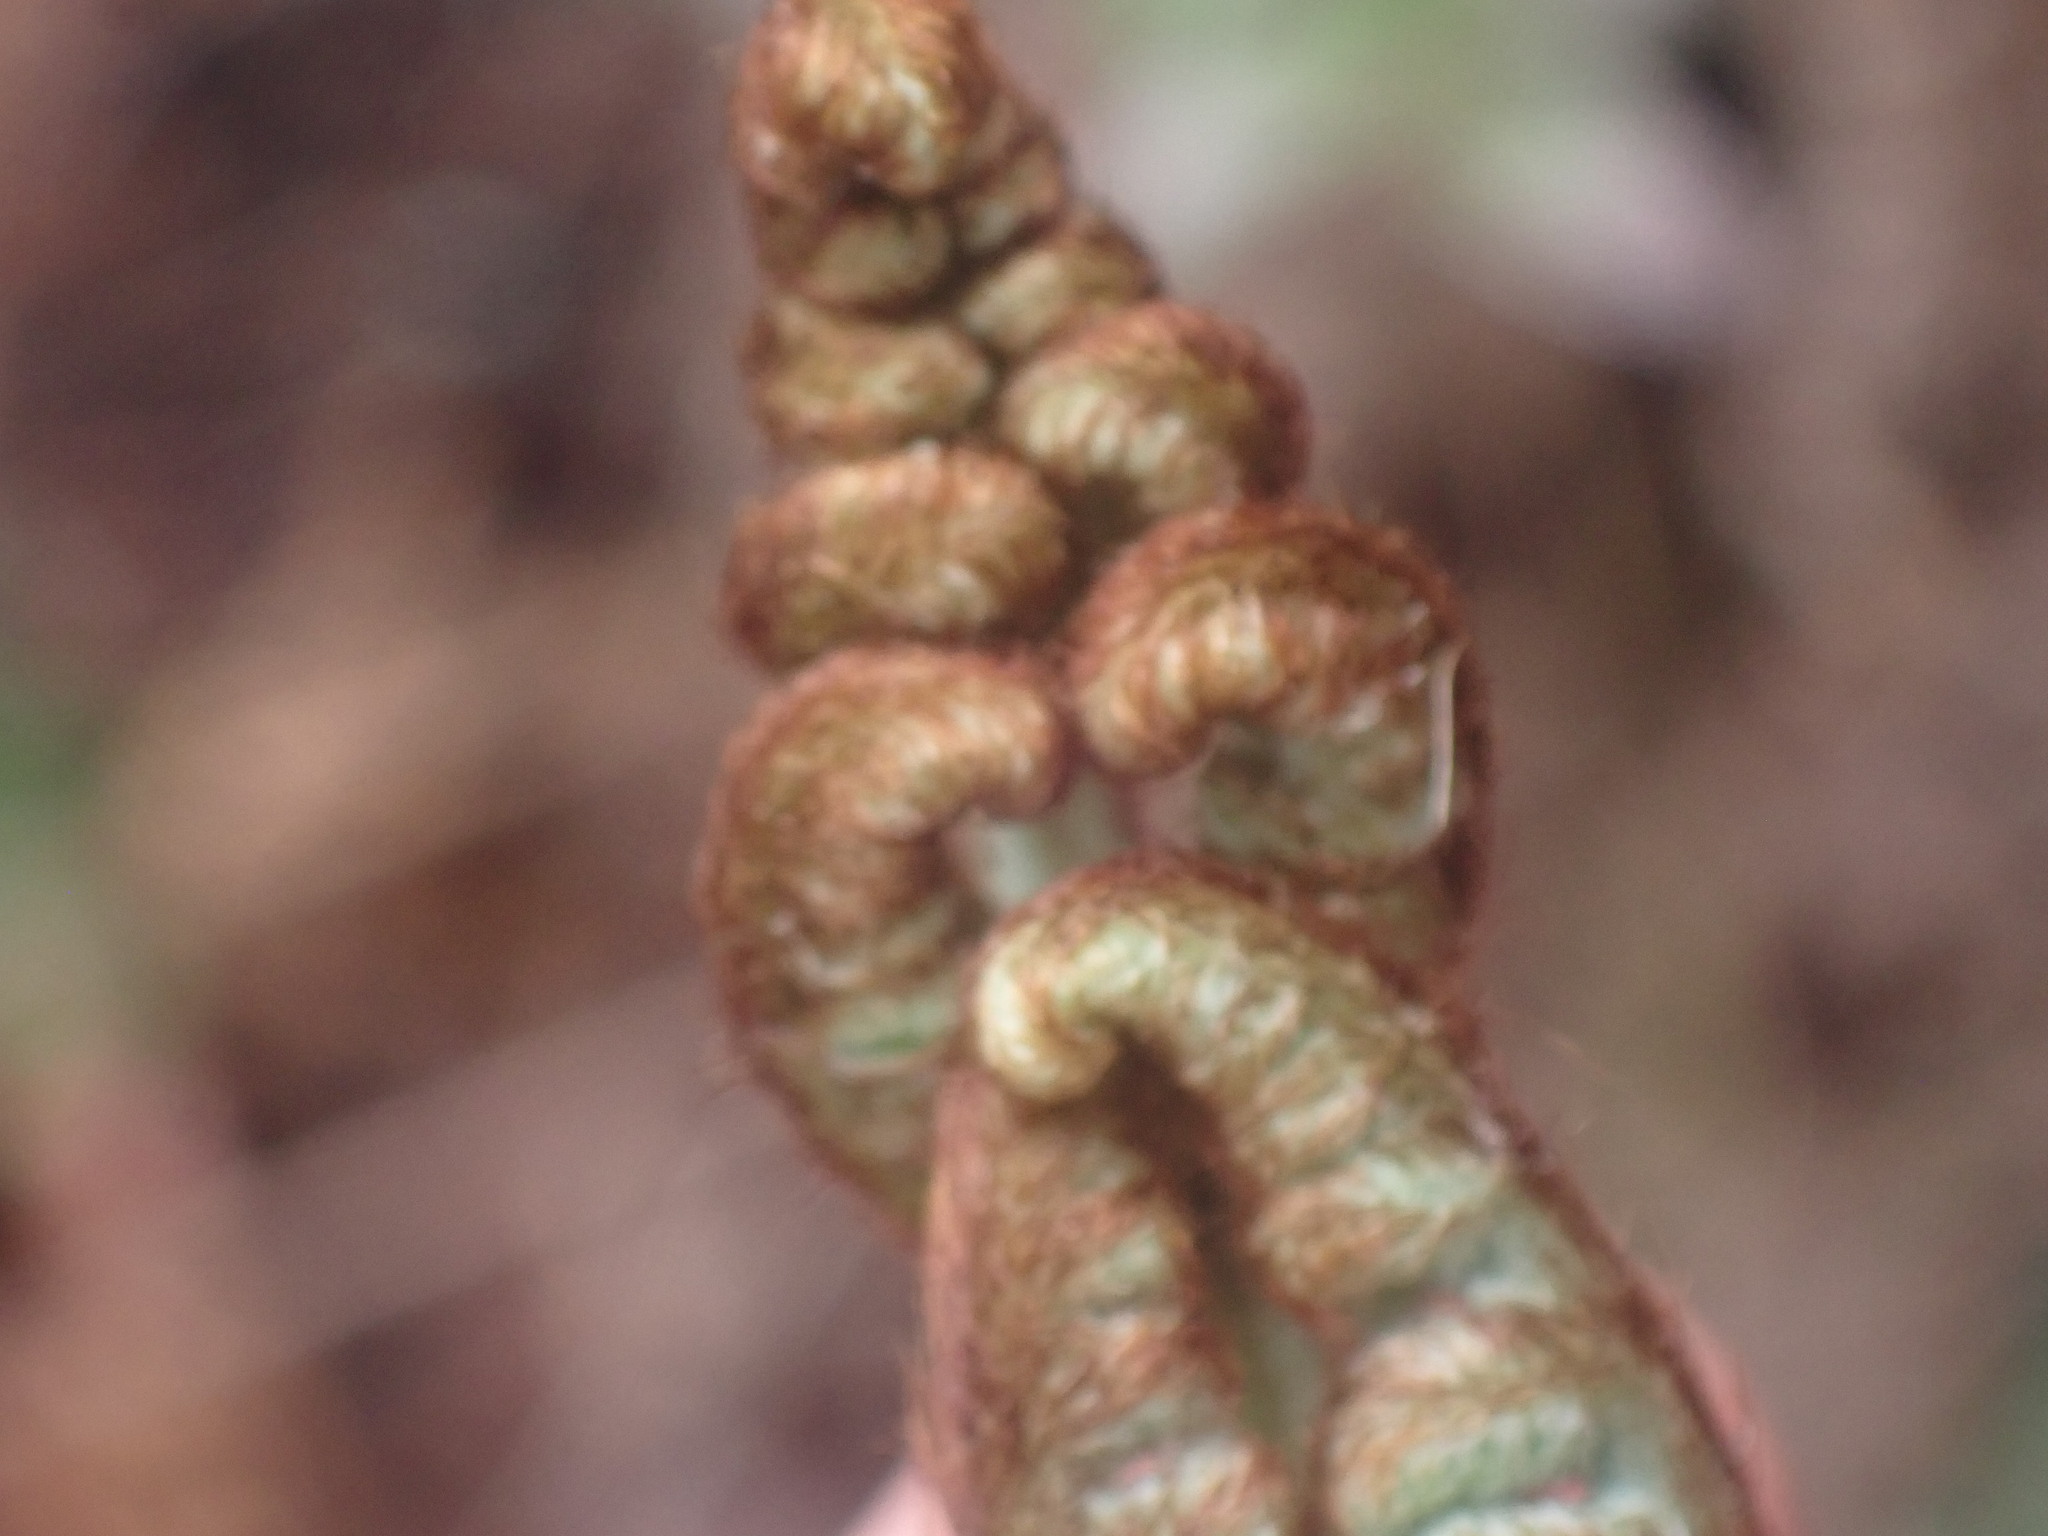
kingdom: Plantae
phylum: Tracheophyta
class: Polypodiopsida
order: Polypodiales
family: Dennstaedtiaceae
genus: Pteridium
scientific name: Pteridium aquilinum
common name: Bracken
